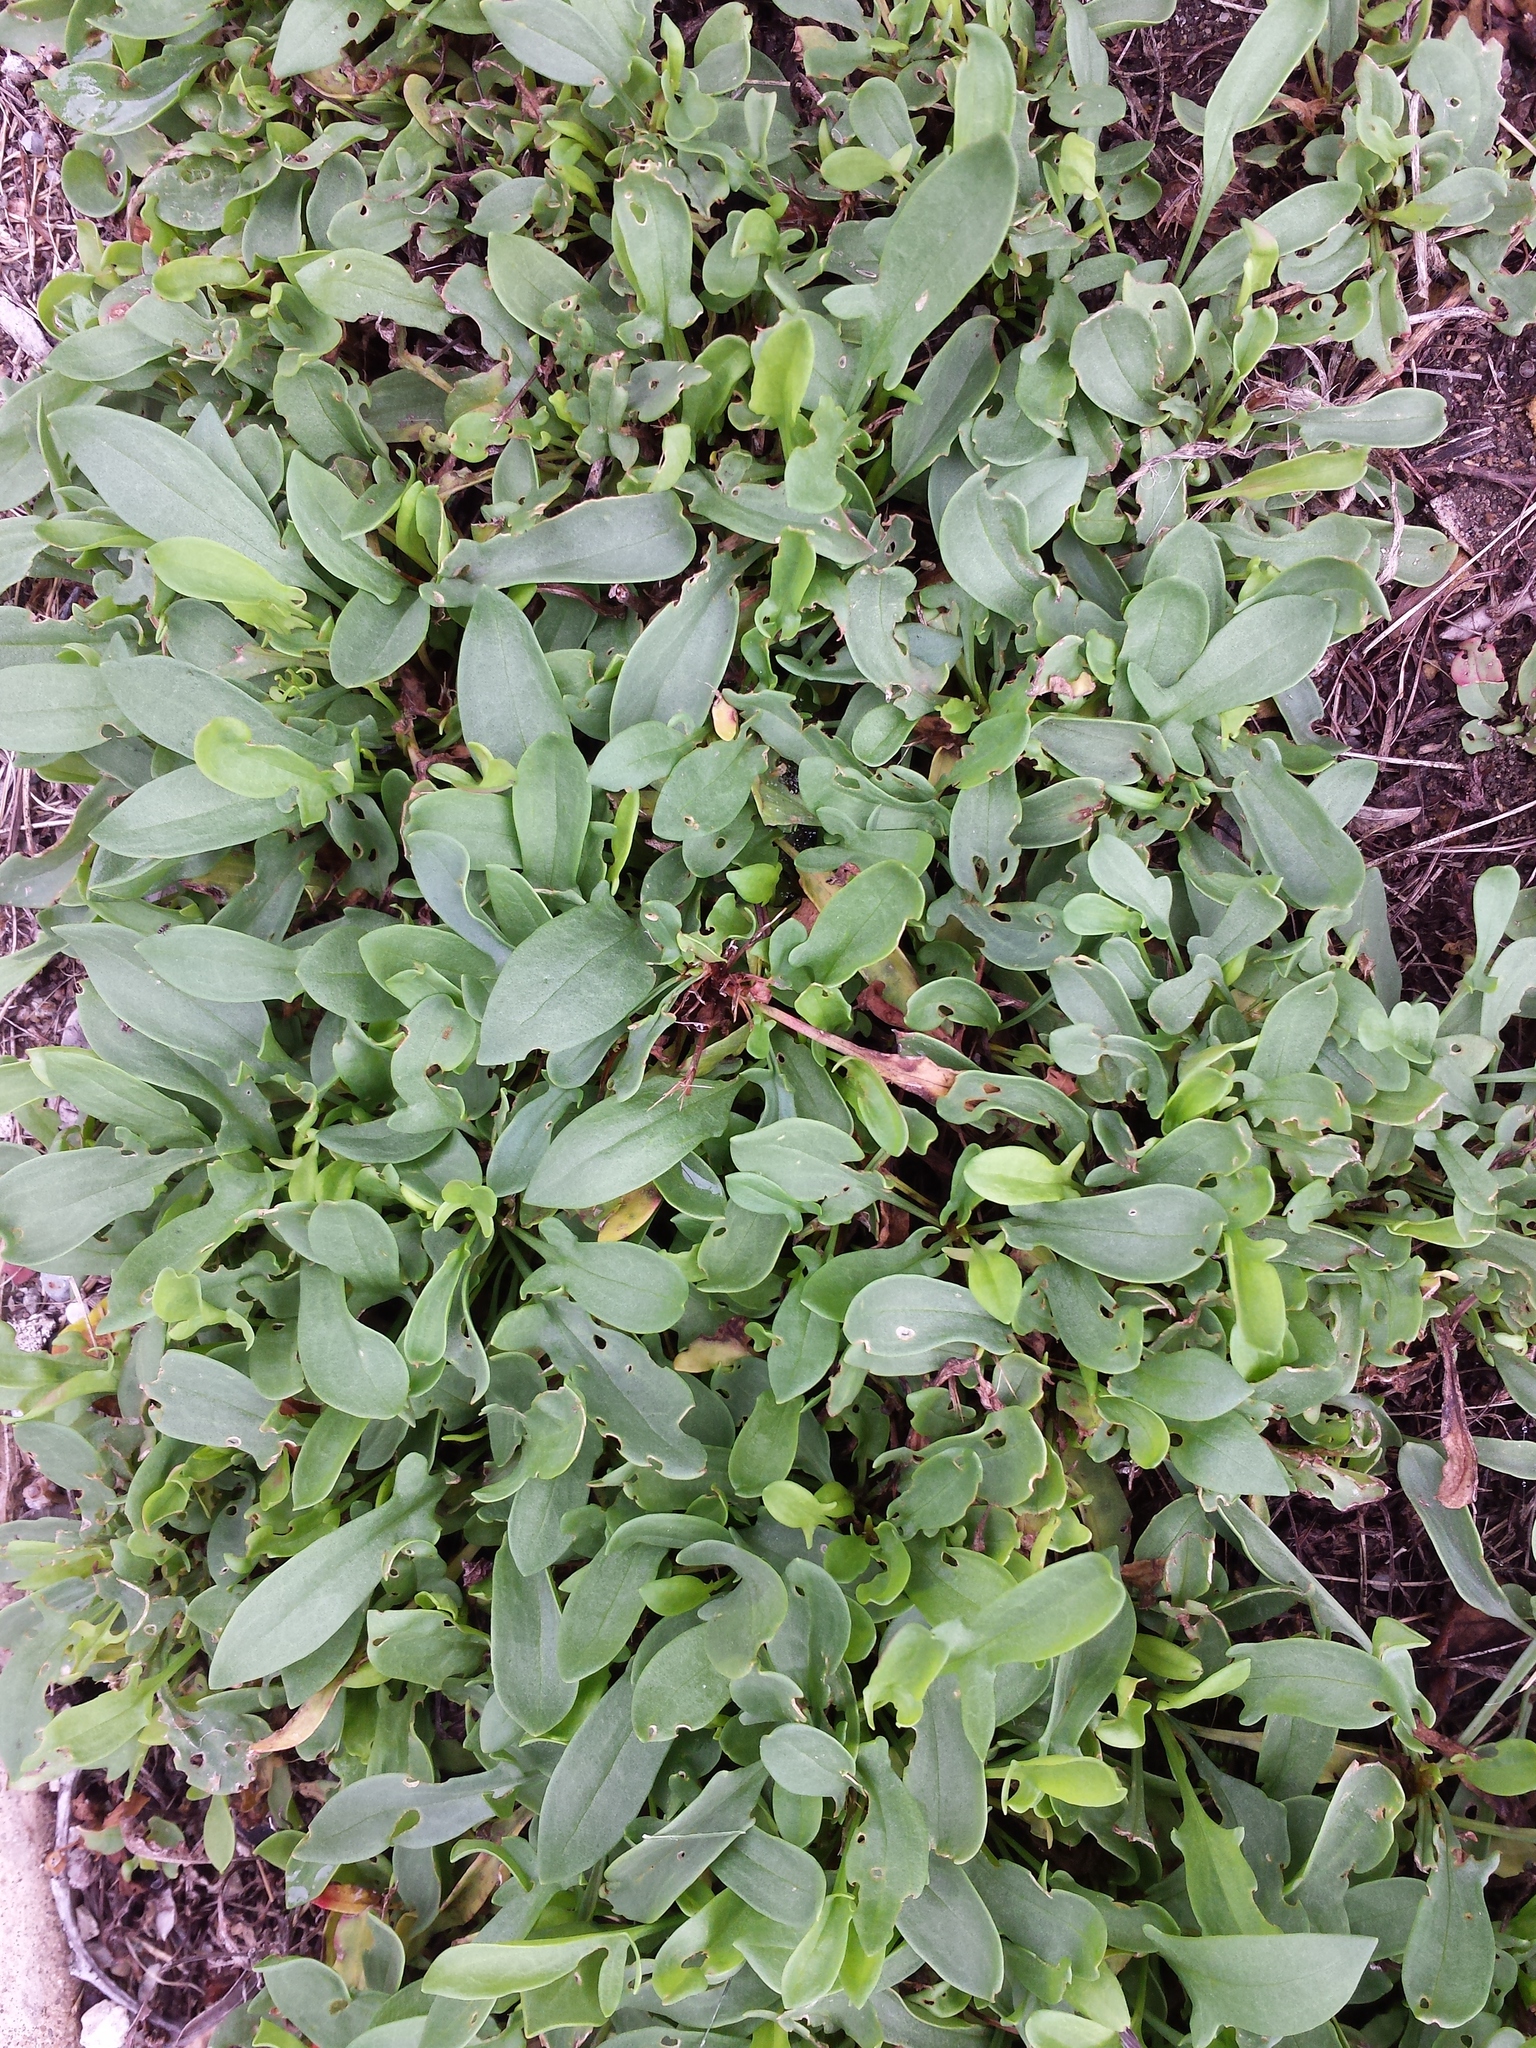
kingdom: Plantae
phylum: Tracheophyta
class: Magnoliopsida
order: Caryophyllales
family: Polygonaceae
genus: Rumex
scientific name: Rumex acetosella
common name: Common sheep sorrel
